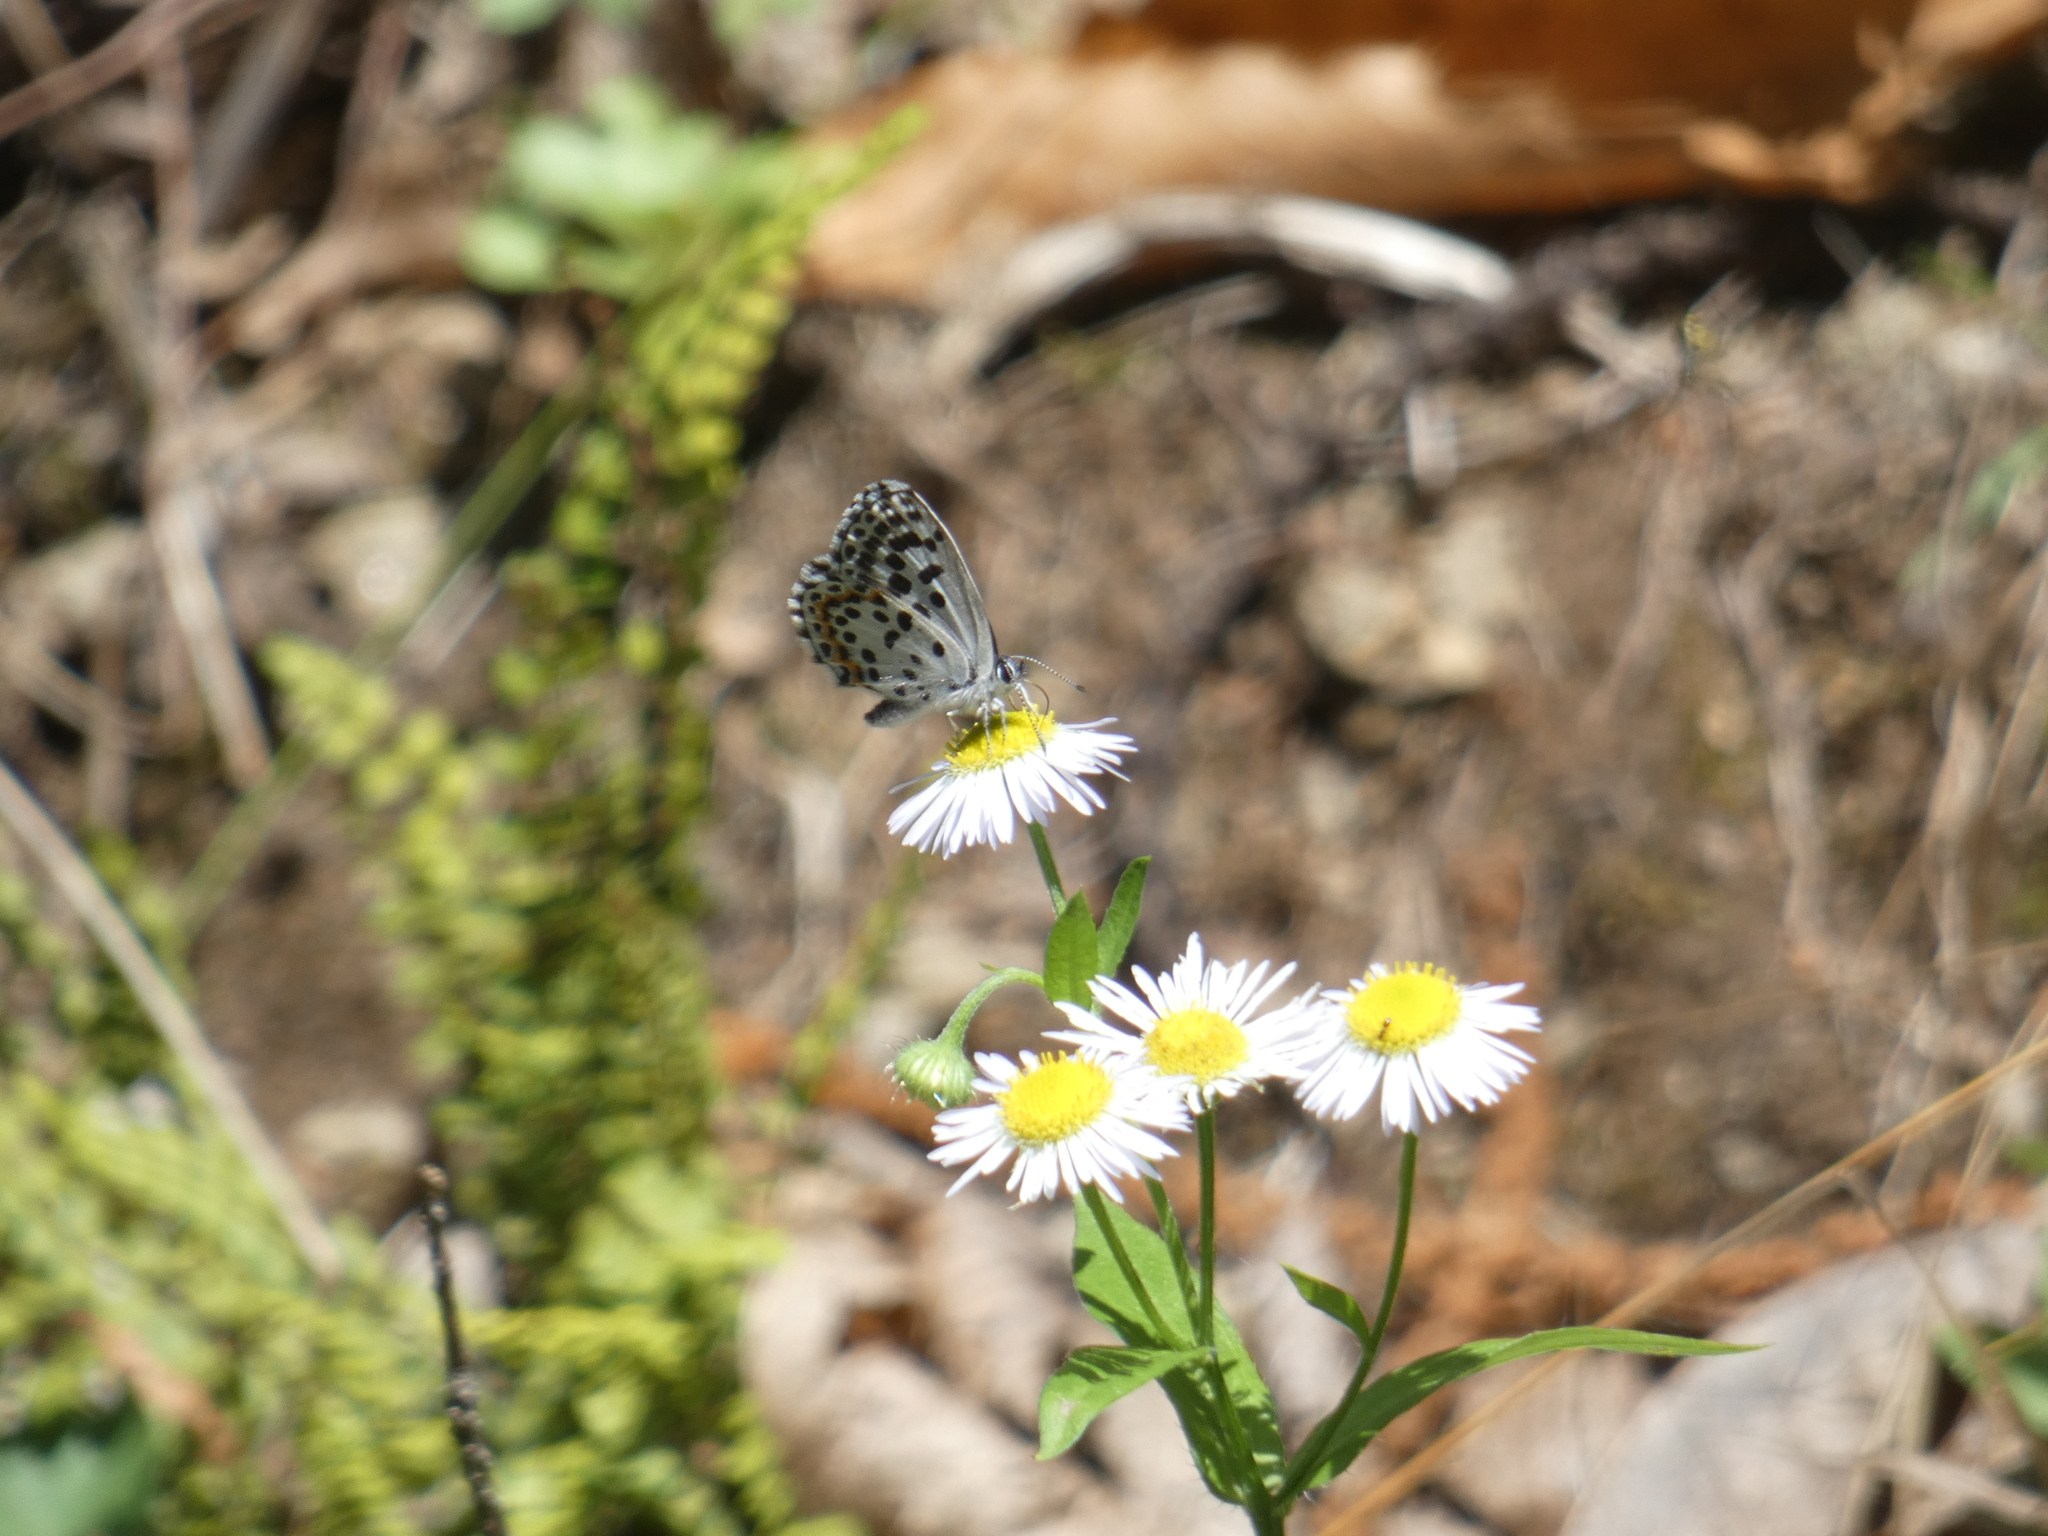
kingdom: Animalia
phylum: Arthropoda
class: Insecta
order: Lepidoptera
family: Lycaenidae
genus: Scolitantides
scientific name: Scolitantides orion
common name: Chequered blue
